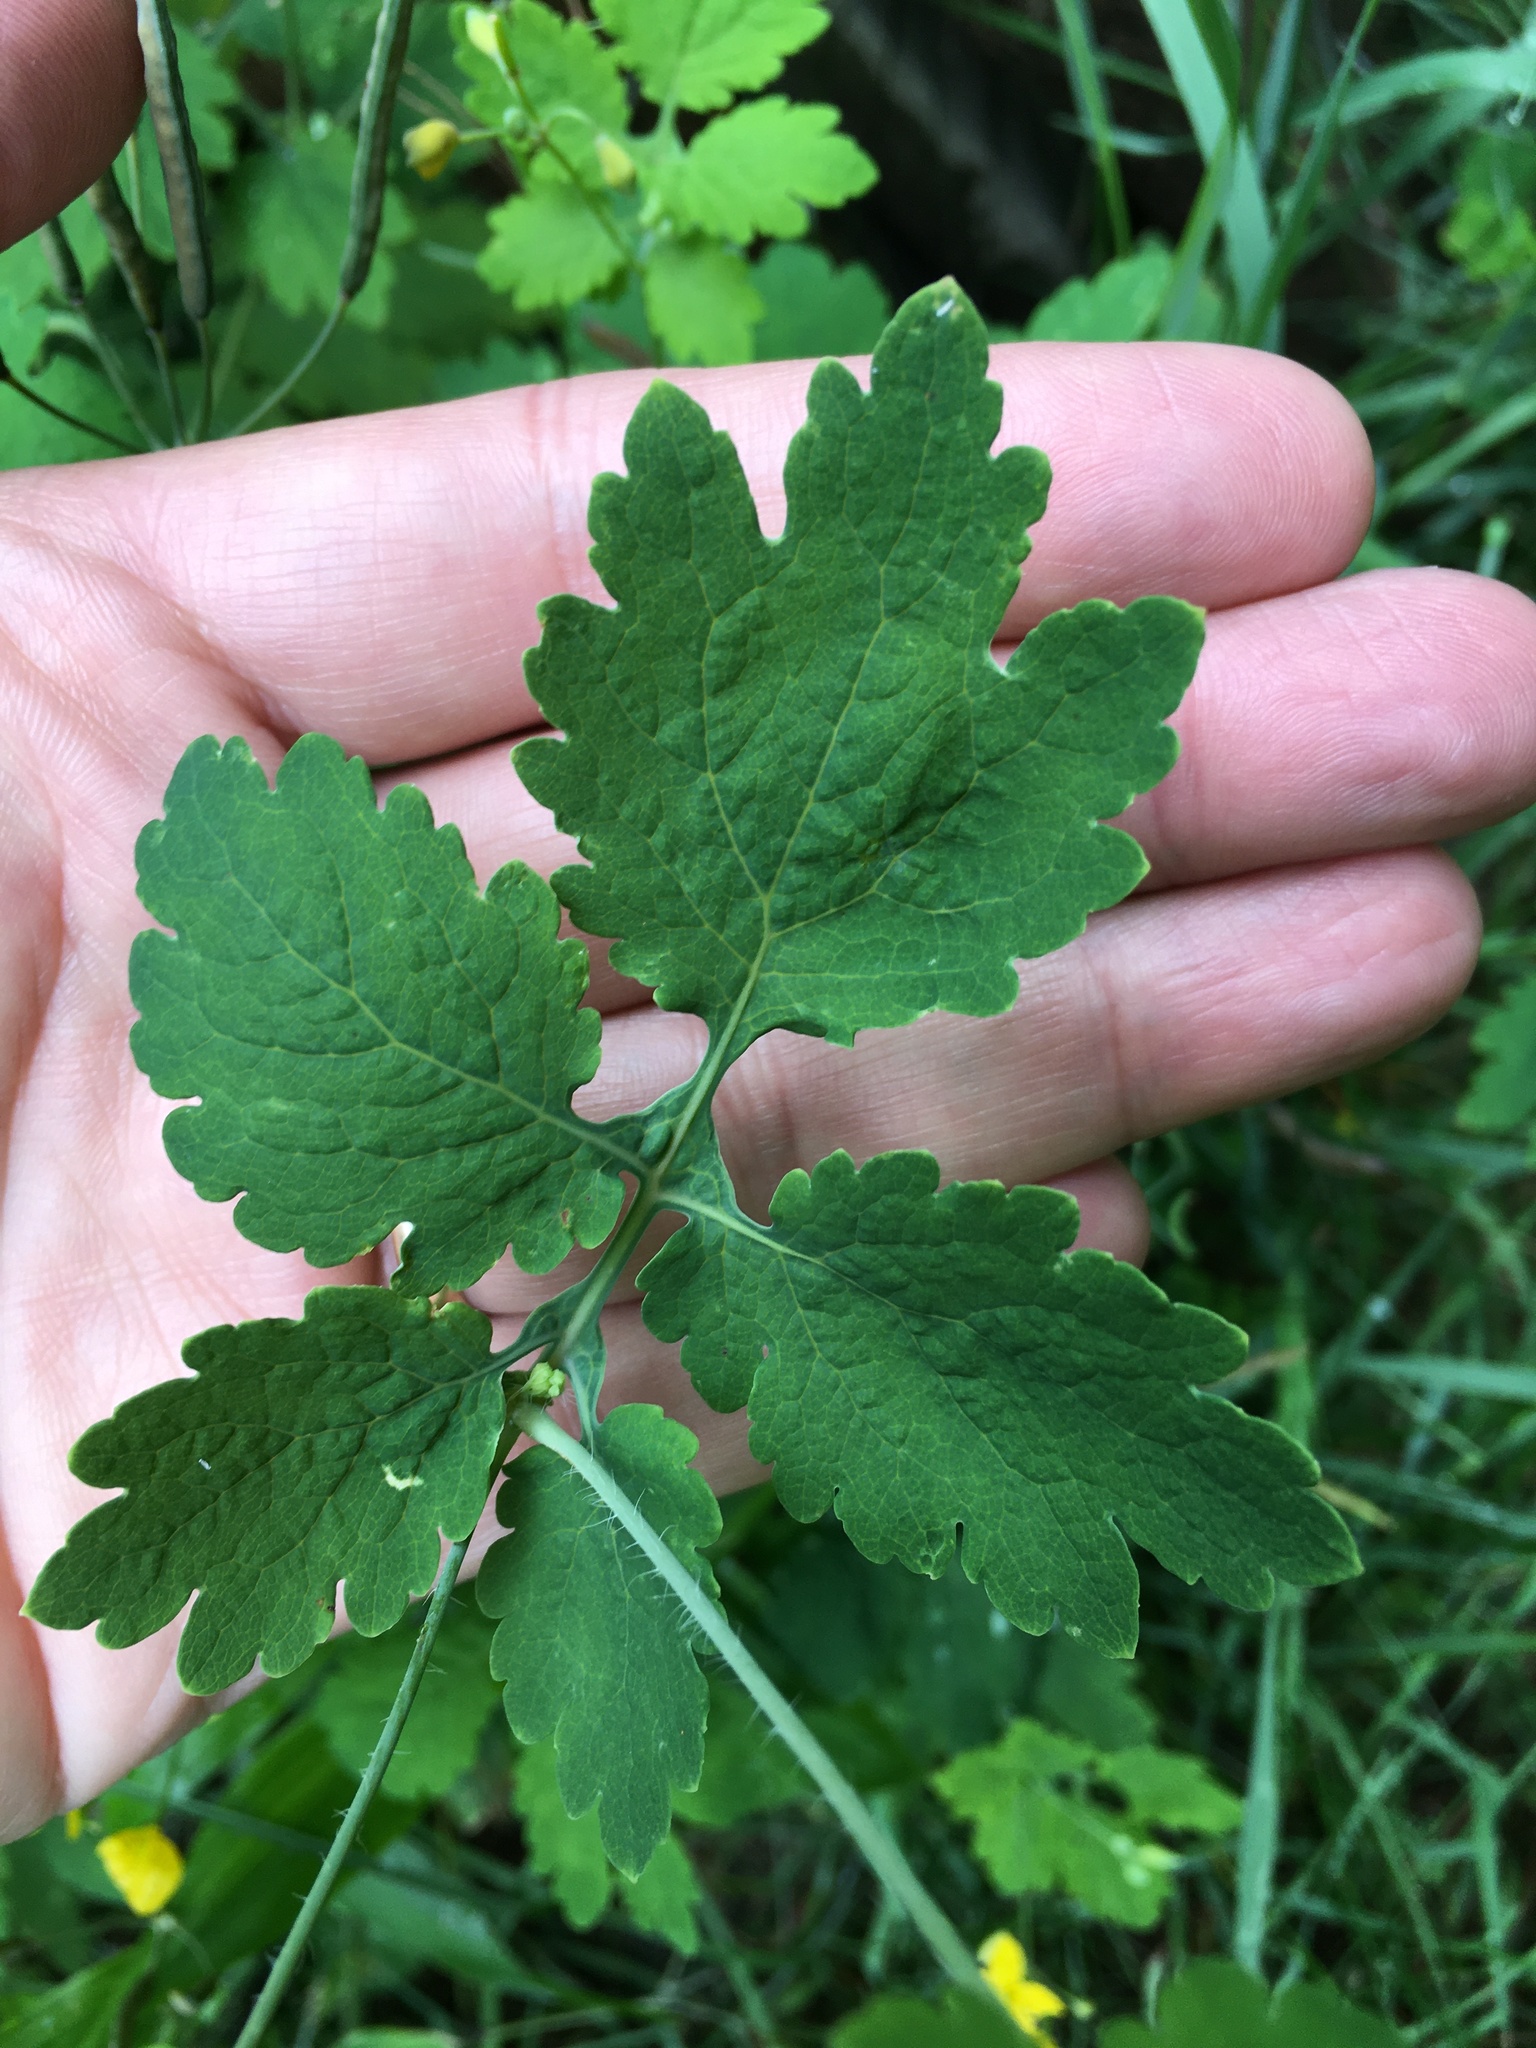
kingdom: Plantae
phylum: Tracheophyta
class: Magnoliopsida
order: Ranunculales
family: Papaveraceae
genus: Chelidonium
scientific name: Chelidonium majus
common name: Greater celandine
